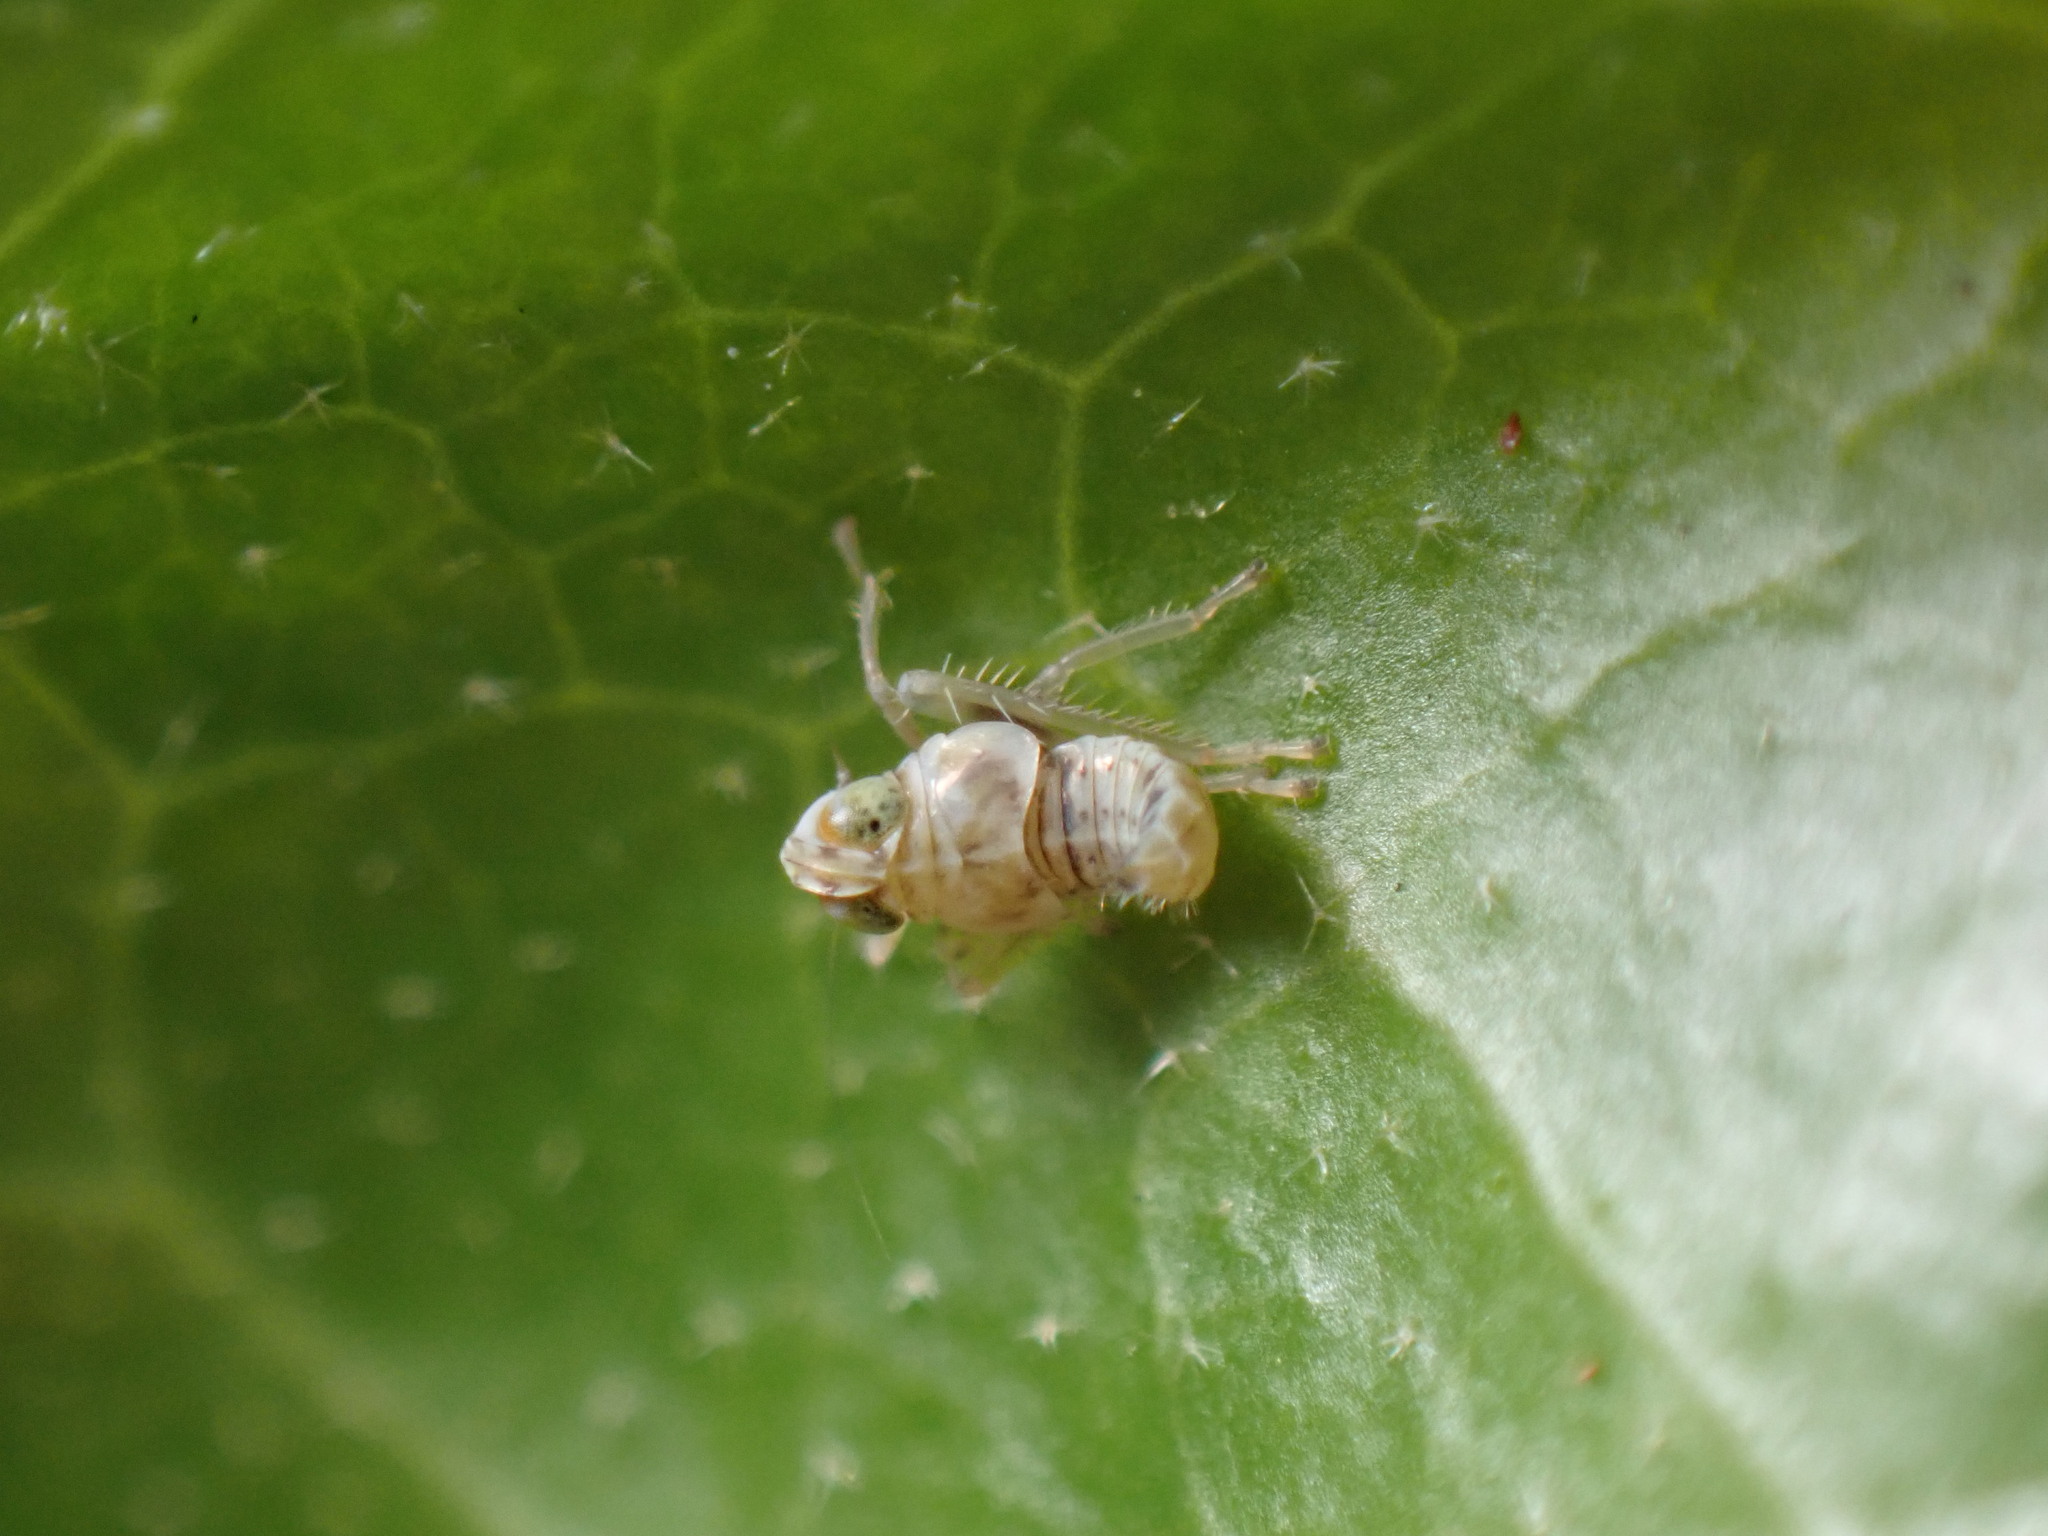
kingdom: Animalia
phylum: Arthropoda
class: Insecta
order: Hemiptera
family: Cicadellidae
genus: Jikradia
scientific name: Jikradia olitoria
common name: Coppery leafhopper
